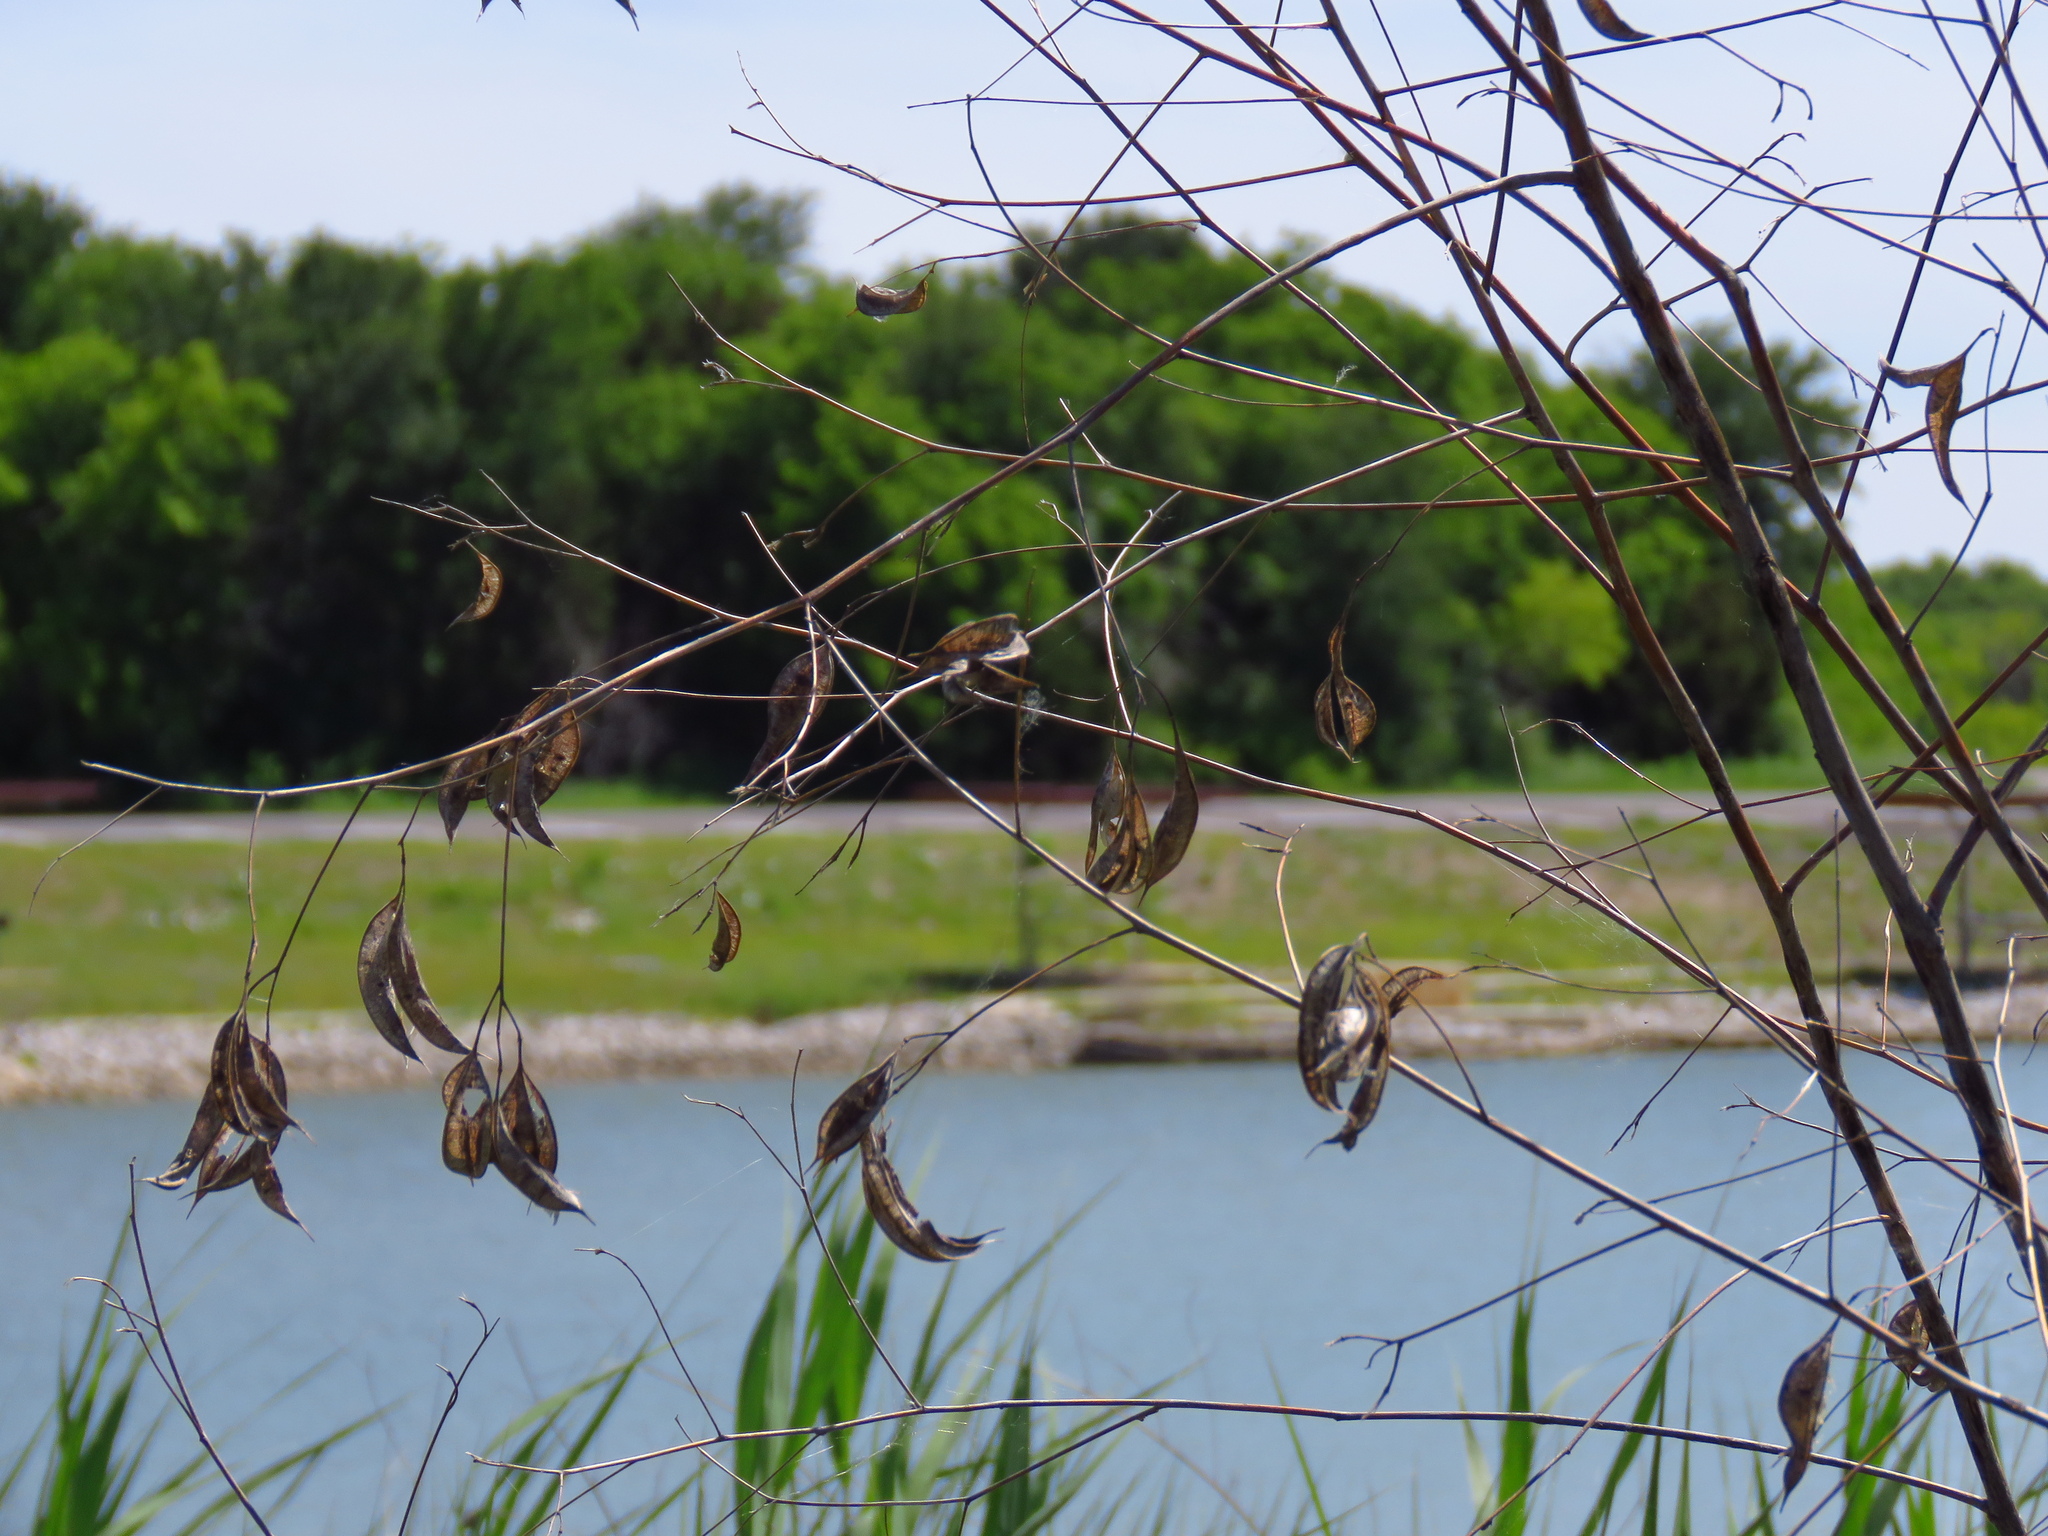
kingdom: Plantae
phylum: Tracheophyta
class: Magnoliopsida
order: Fabales
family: Fabaceae
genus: Sesbania
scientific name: Sesbania vesicaria
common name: Bagpod
